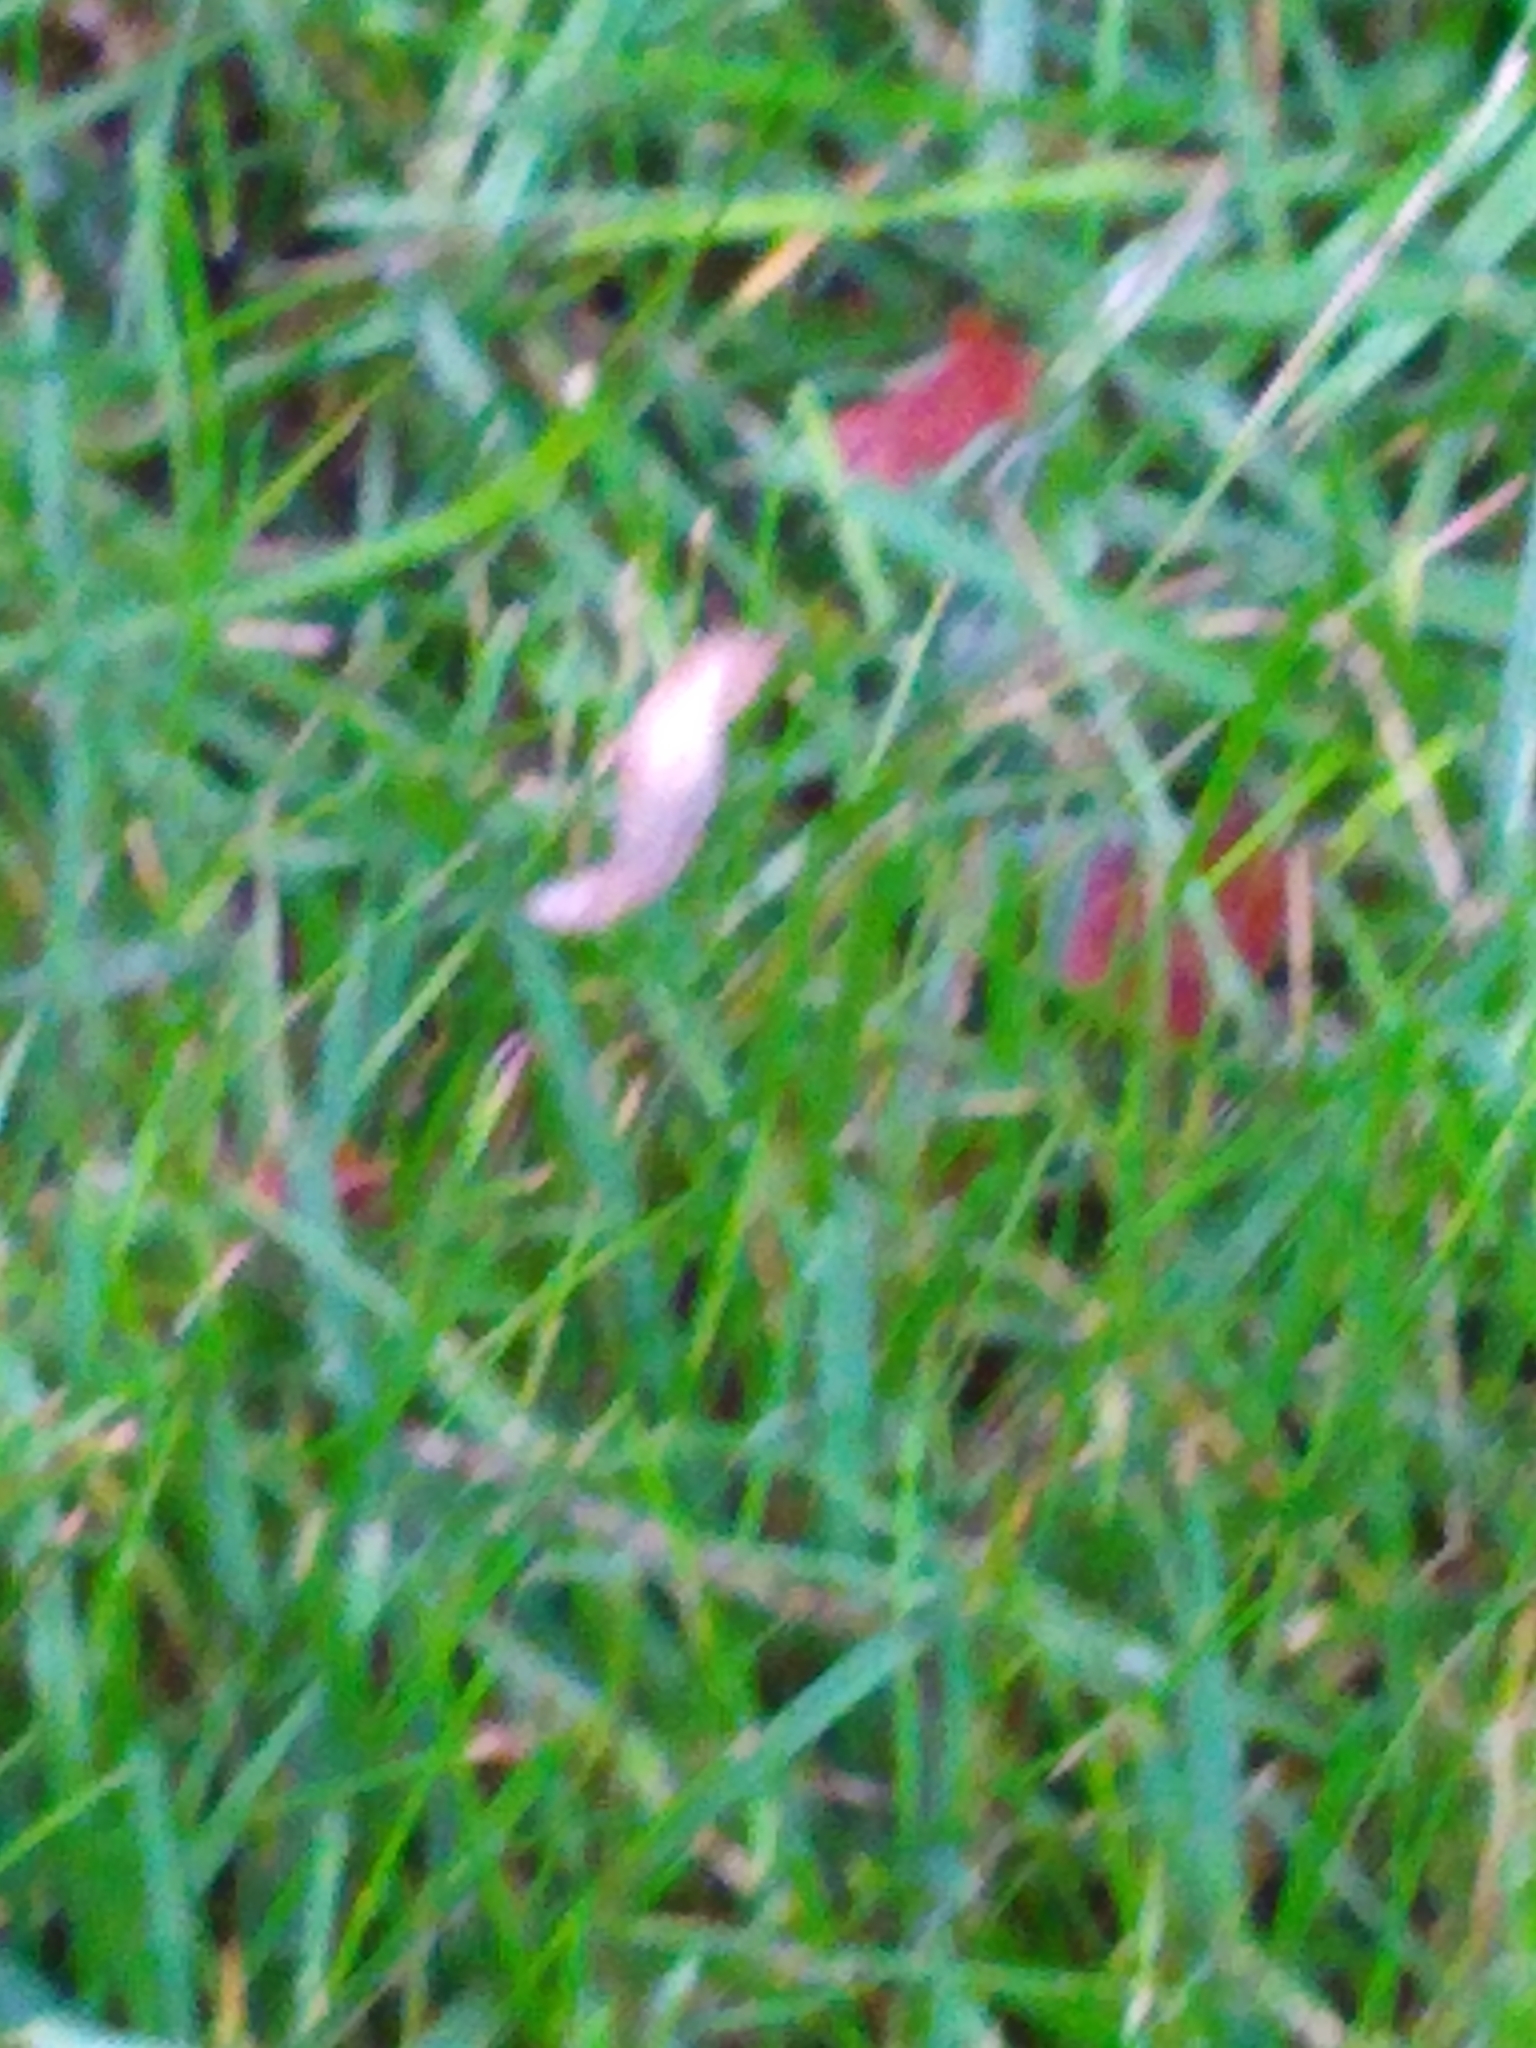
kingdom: Animalia
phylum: Mollusca
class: Gastropoda
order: Stylommatophora
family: Agriolimacidae
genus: Deroceras
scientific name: Deroceras reticulatum
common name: Gray field slug
